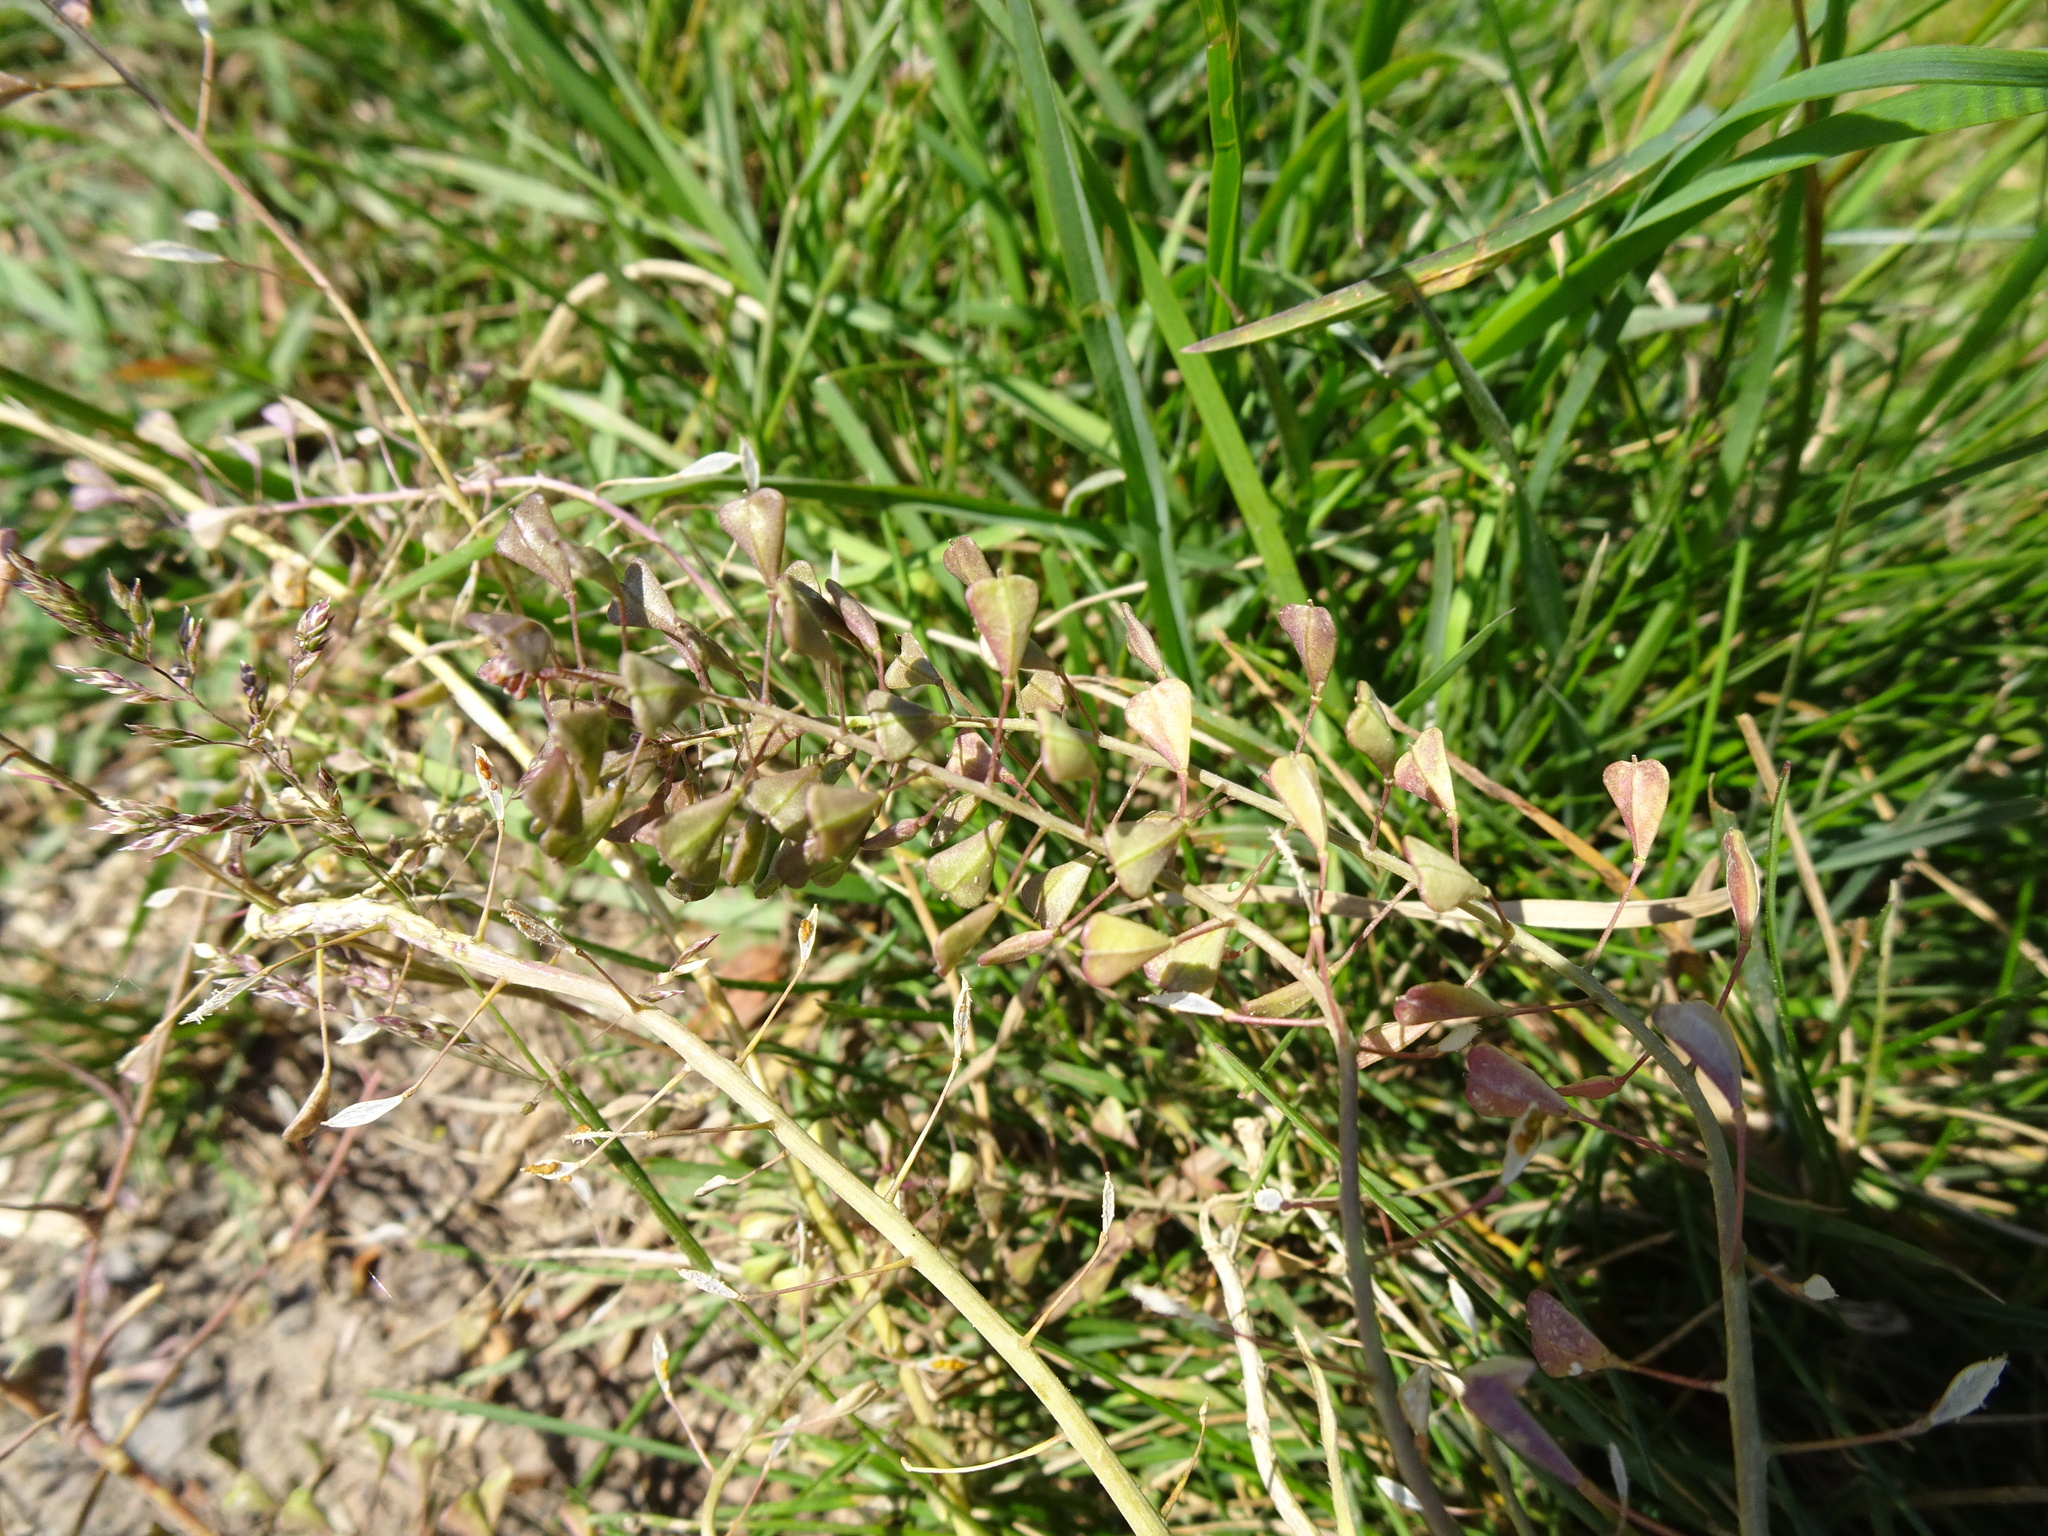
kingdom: Plantae
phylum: Tracheophyta
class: Magnoliopsida
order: Brassicales
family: Brassicaceae
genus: Capsella
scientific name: Capsella bursa-pastoris
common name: Shepherd's purse
